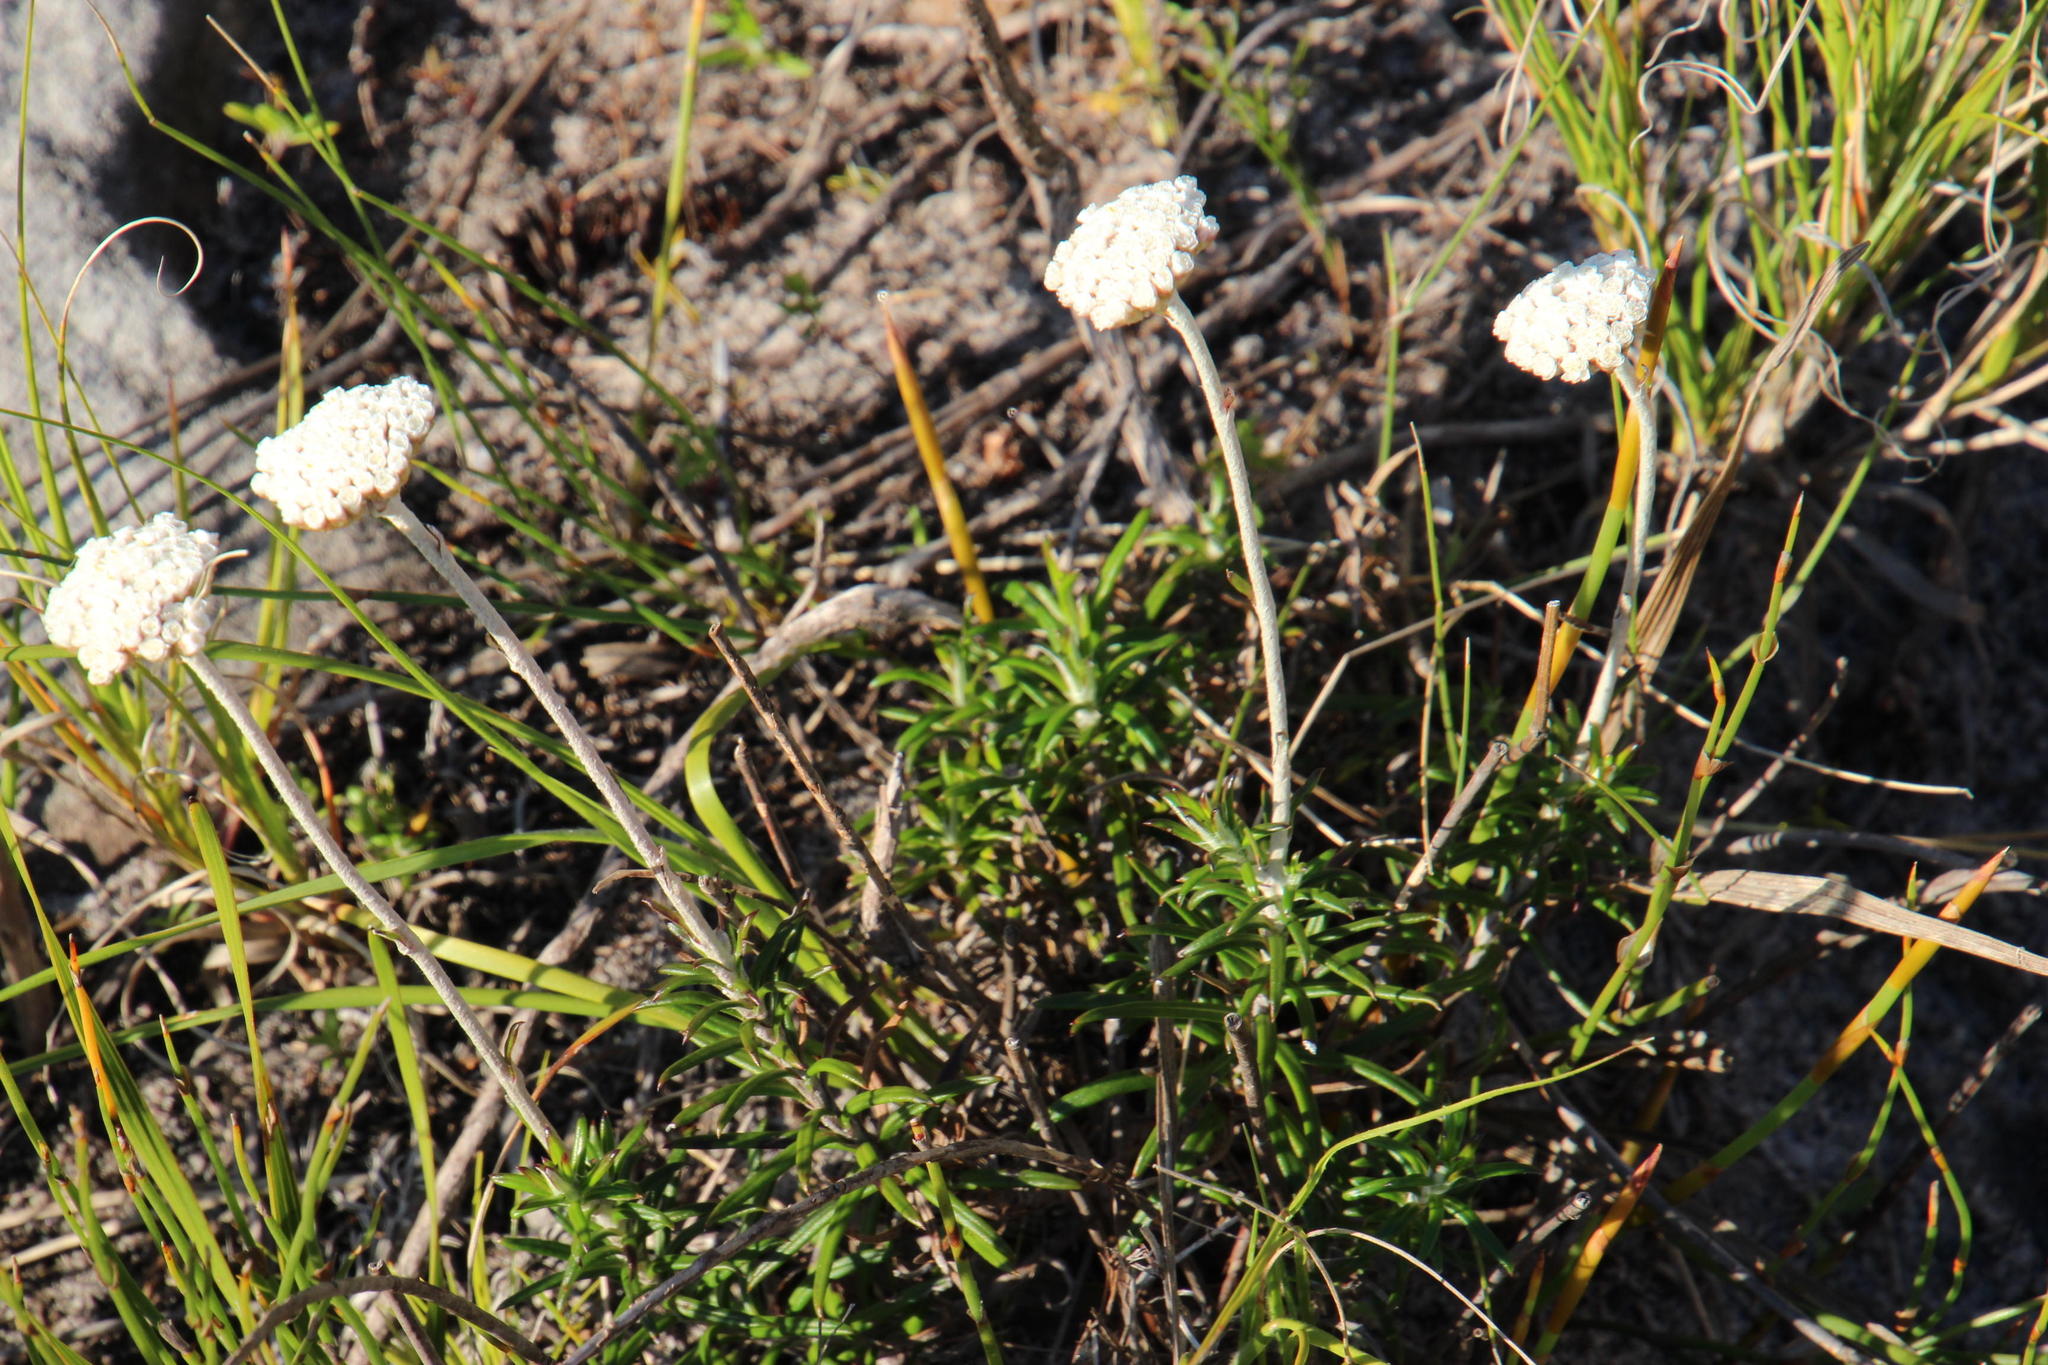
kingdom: Plantae
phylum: Tracheophyta
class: Magnoliopsida
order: Asterales
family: Asteraceae
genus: Anaxeton
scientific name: Anaxeton arborescens
